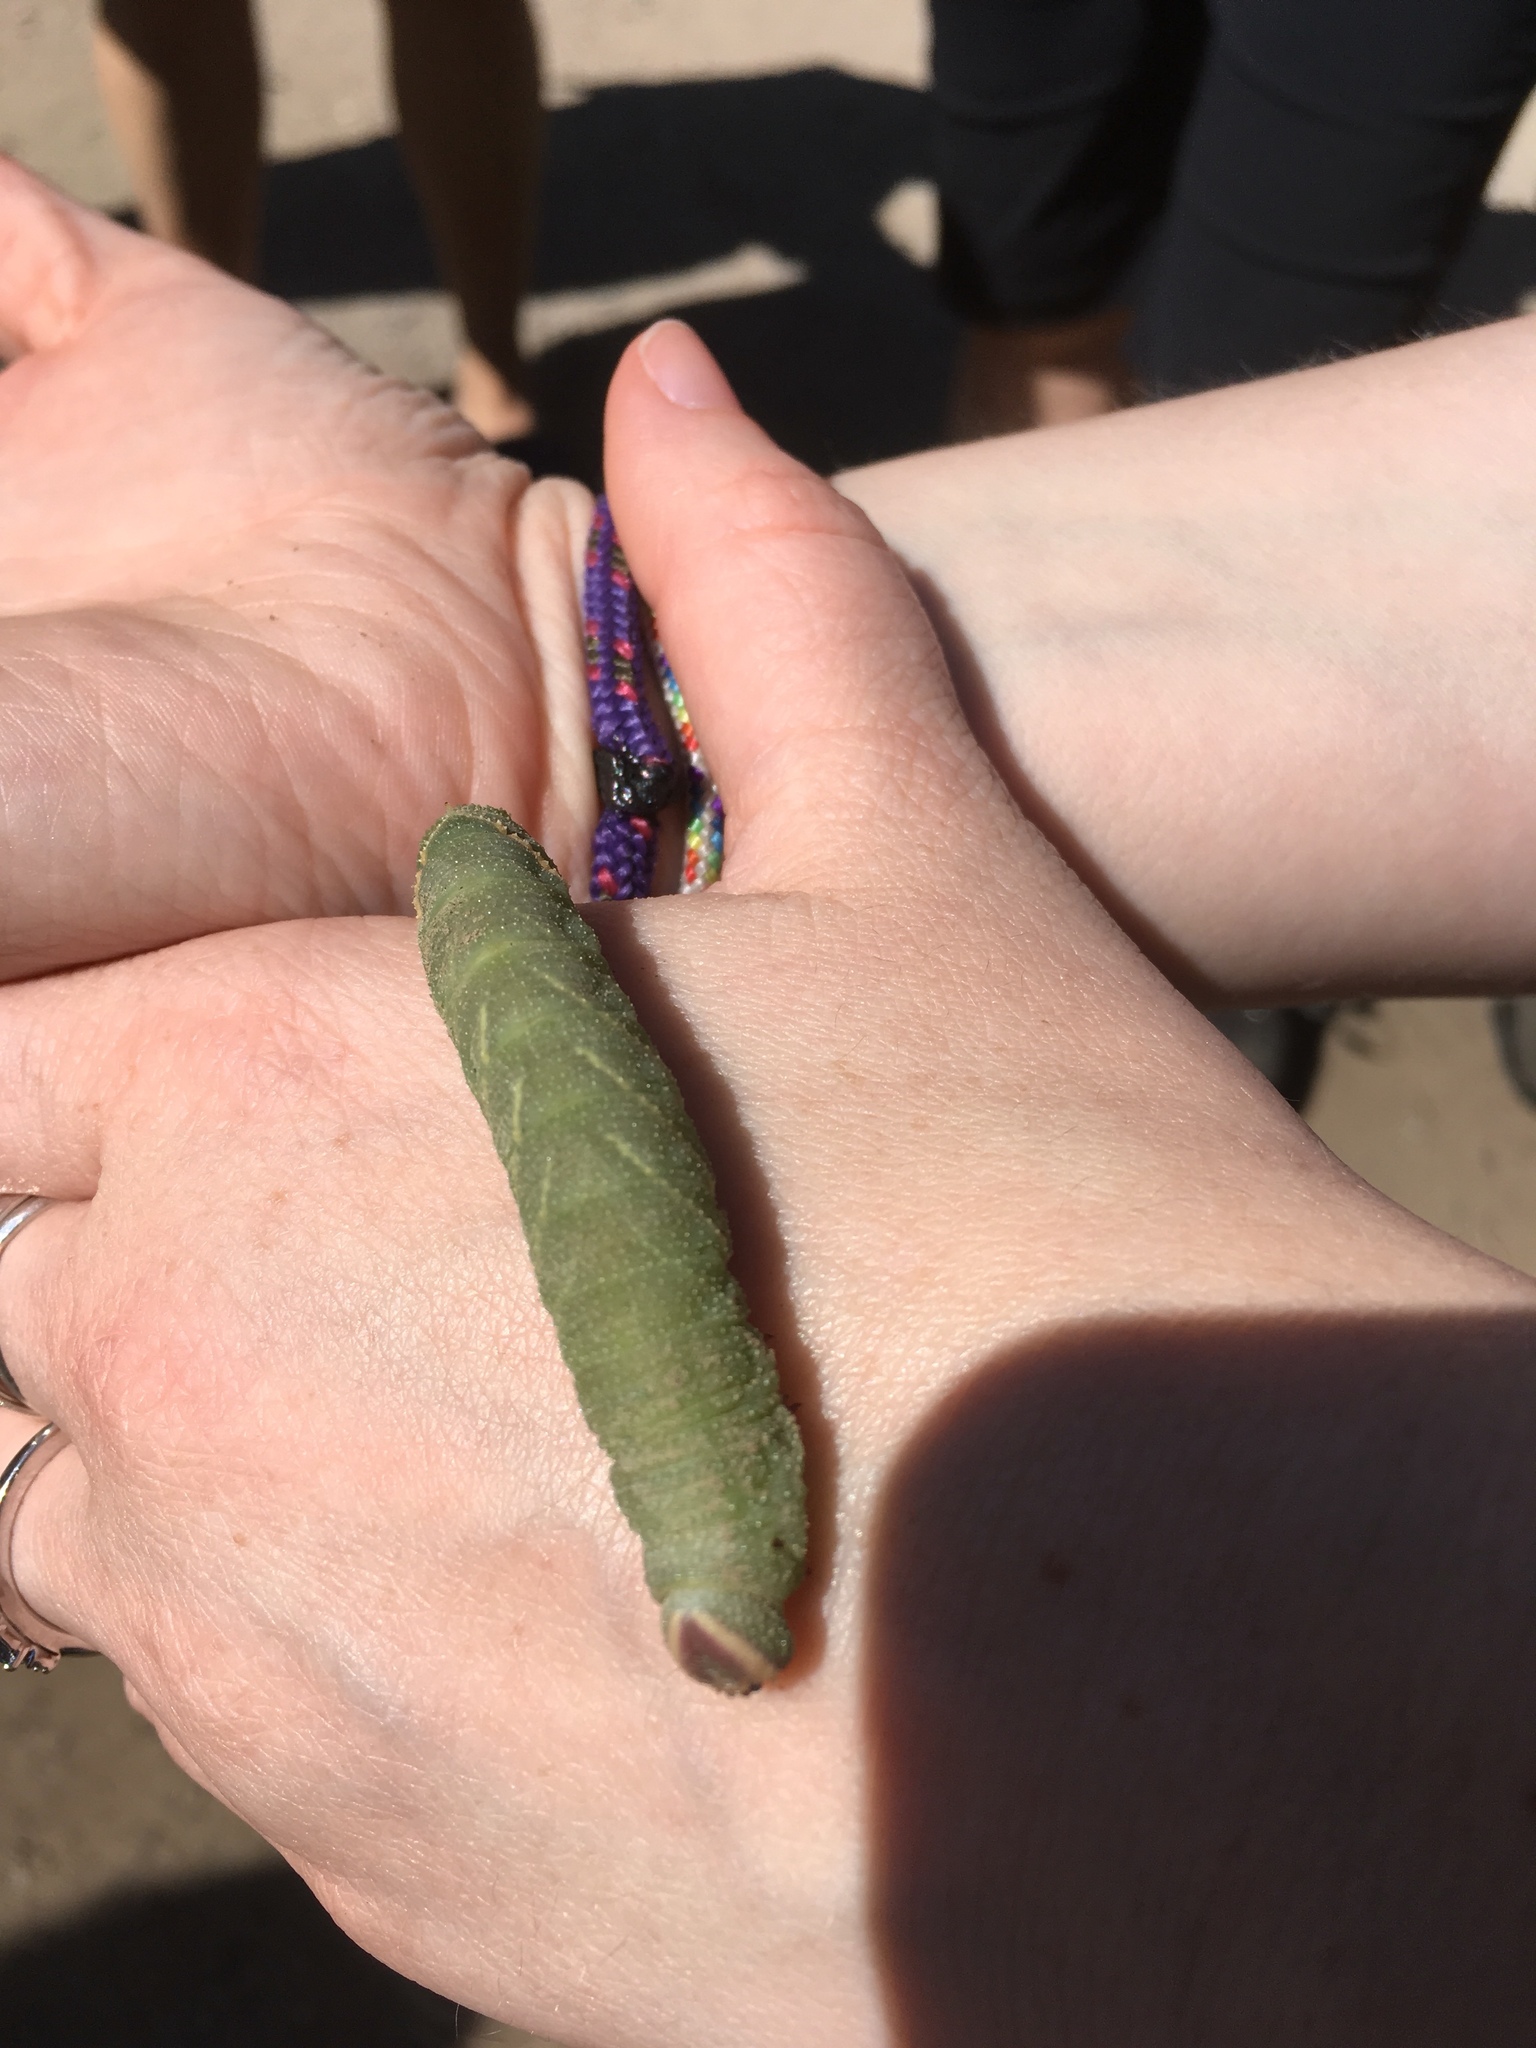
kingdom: Animalia
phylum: Arthropoda
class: Insecta
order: Lepidoptera
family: Sphingidae
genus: Pachysphinx
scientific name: Pachysphinx modesta
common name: Big poplar sphinx
